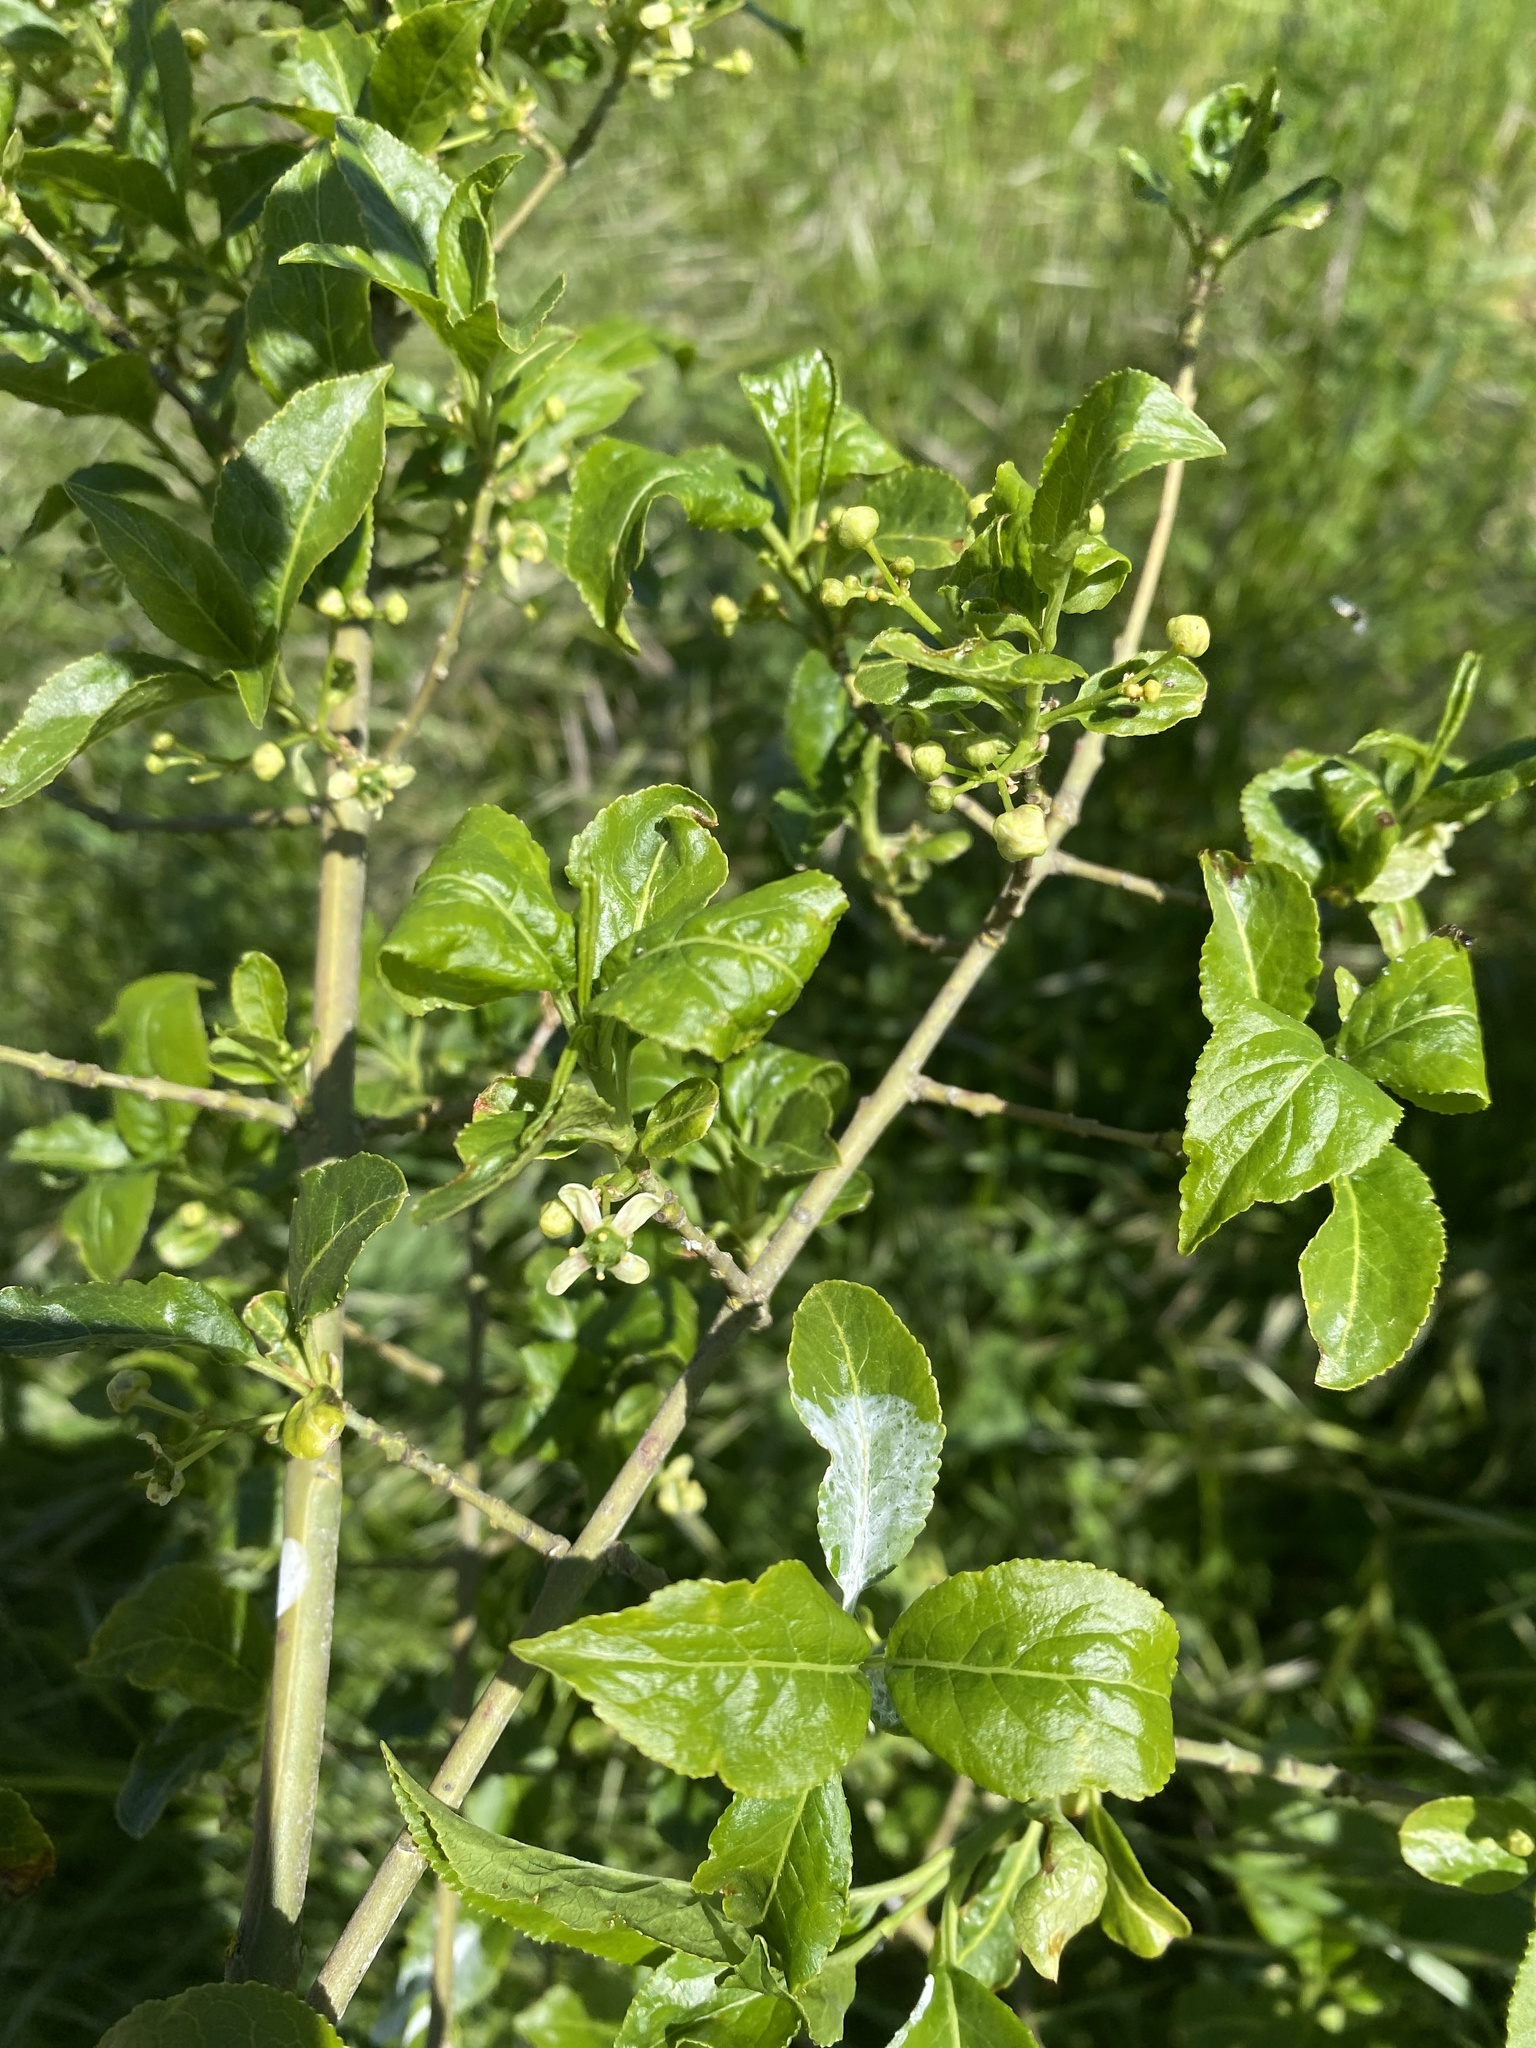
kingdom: Plantae
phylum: Tracheophyta
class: Magnoliopsida
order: Celastrales
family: Celastraceae
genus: Euonymus
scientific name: Euonymus europaeus
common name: Spindle
